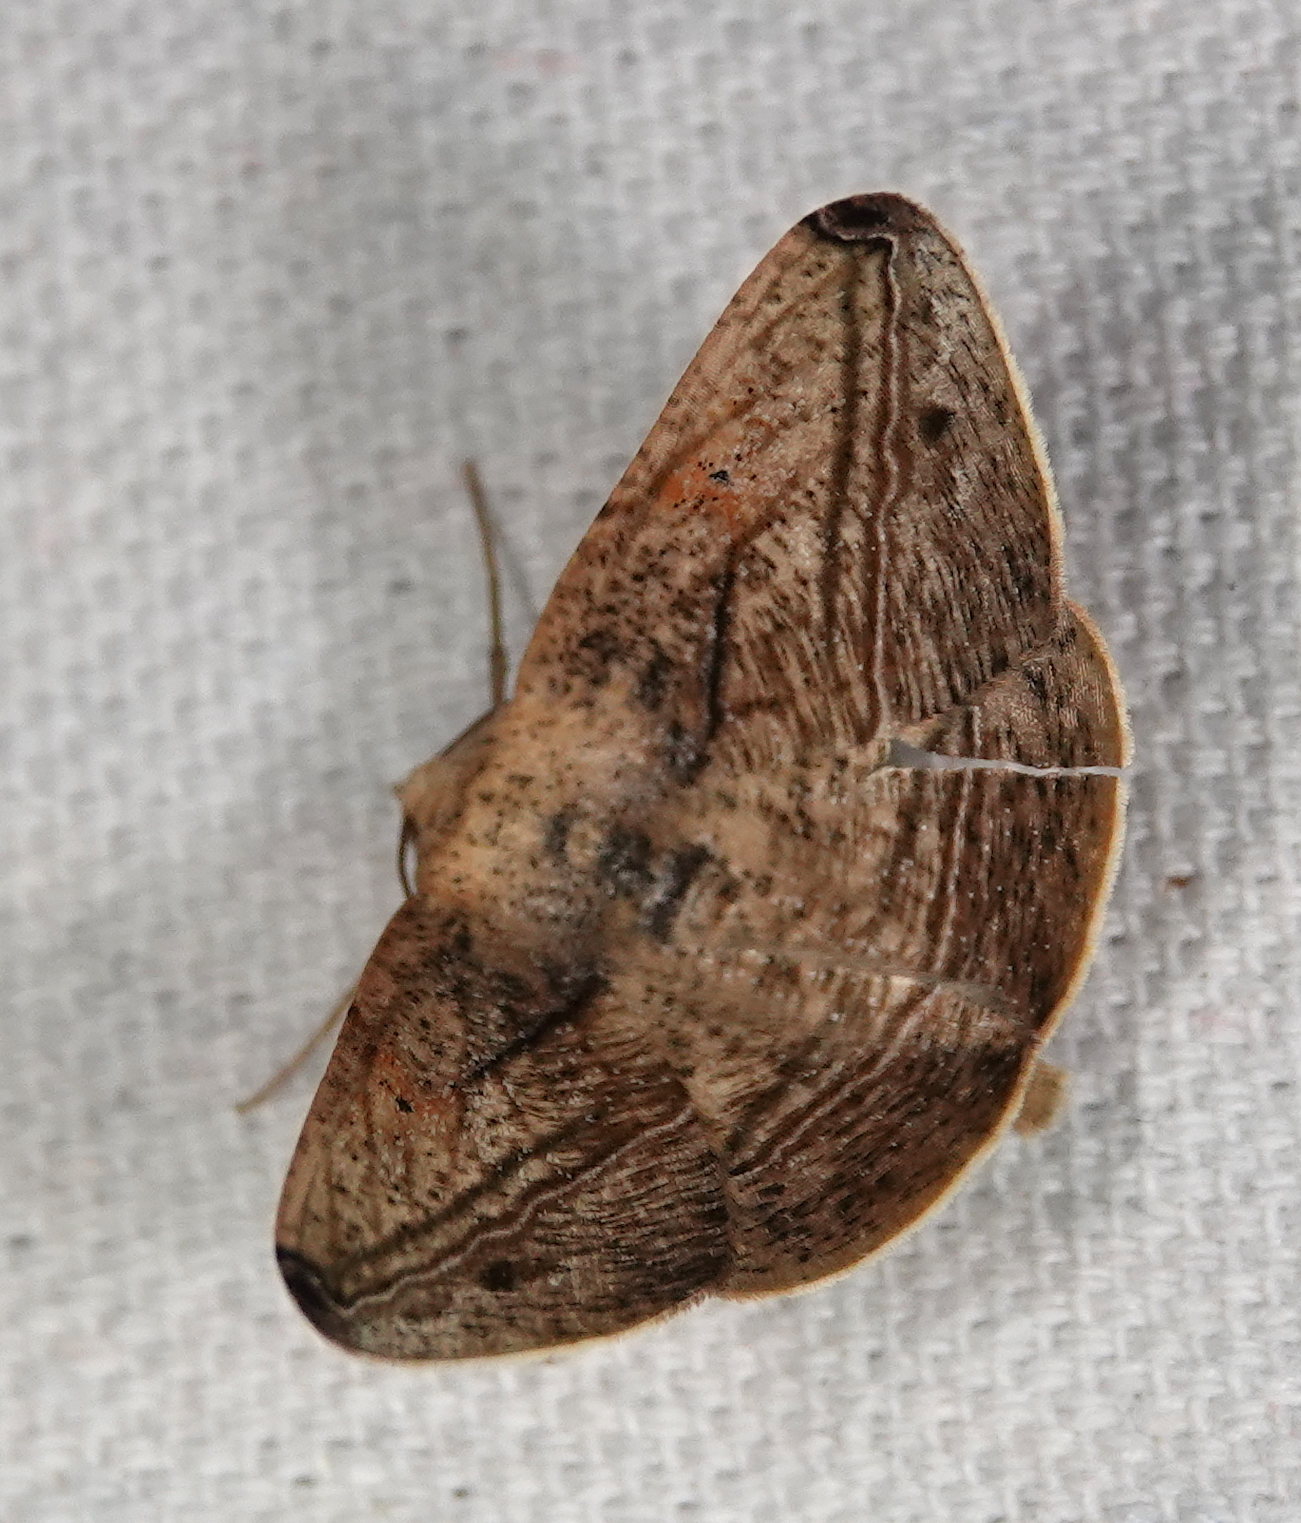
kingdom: Animalia
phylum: Arthropoda
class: Insecta
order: Lepidoptera
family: Geometridae
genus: Bassania
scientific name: Bassania crocallinaria
